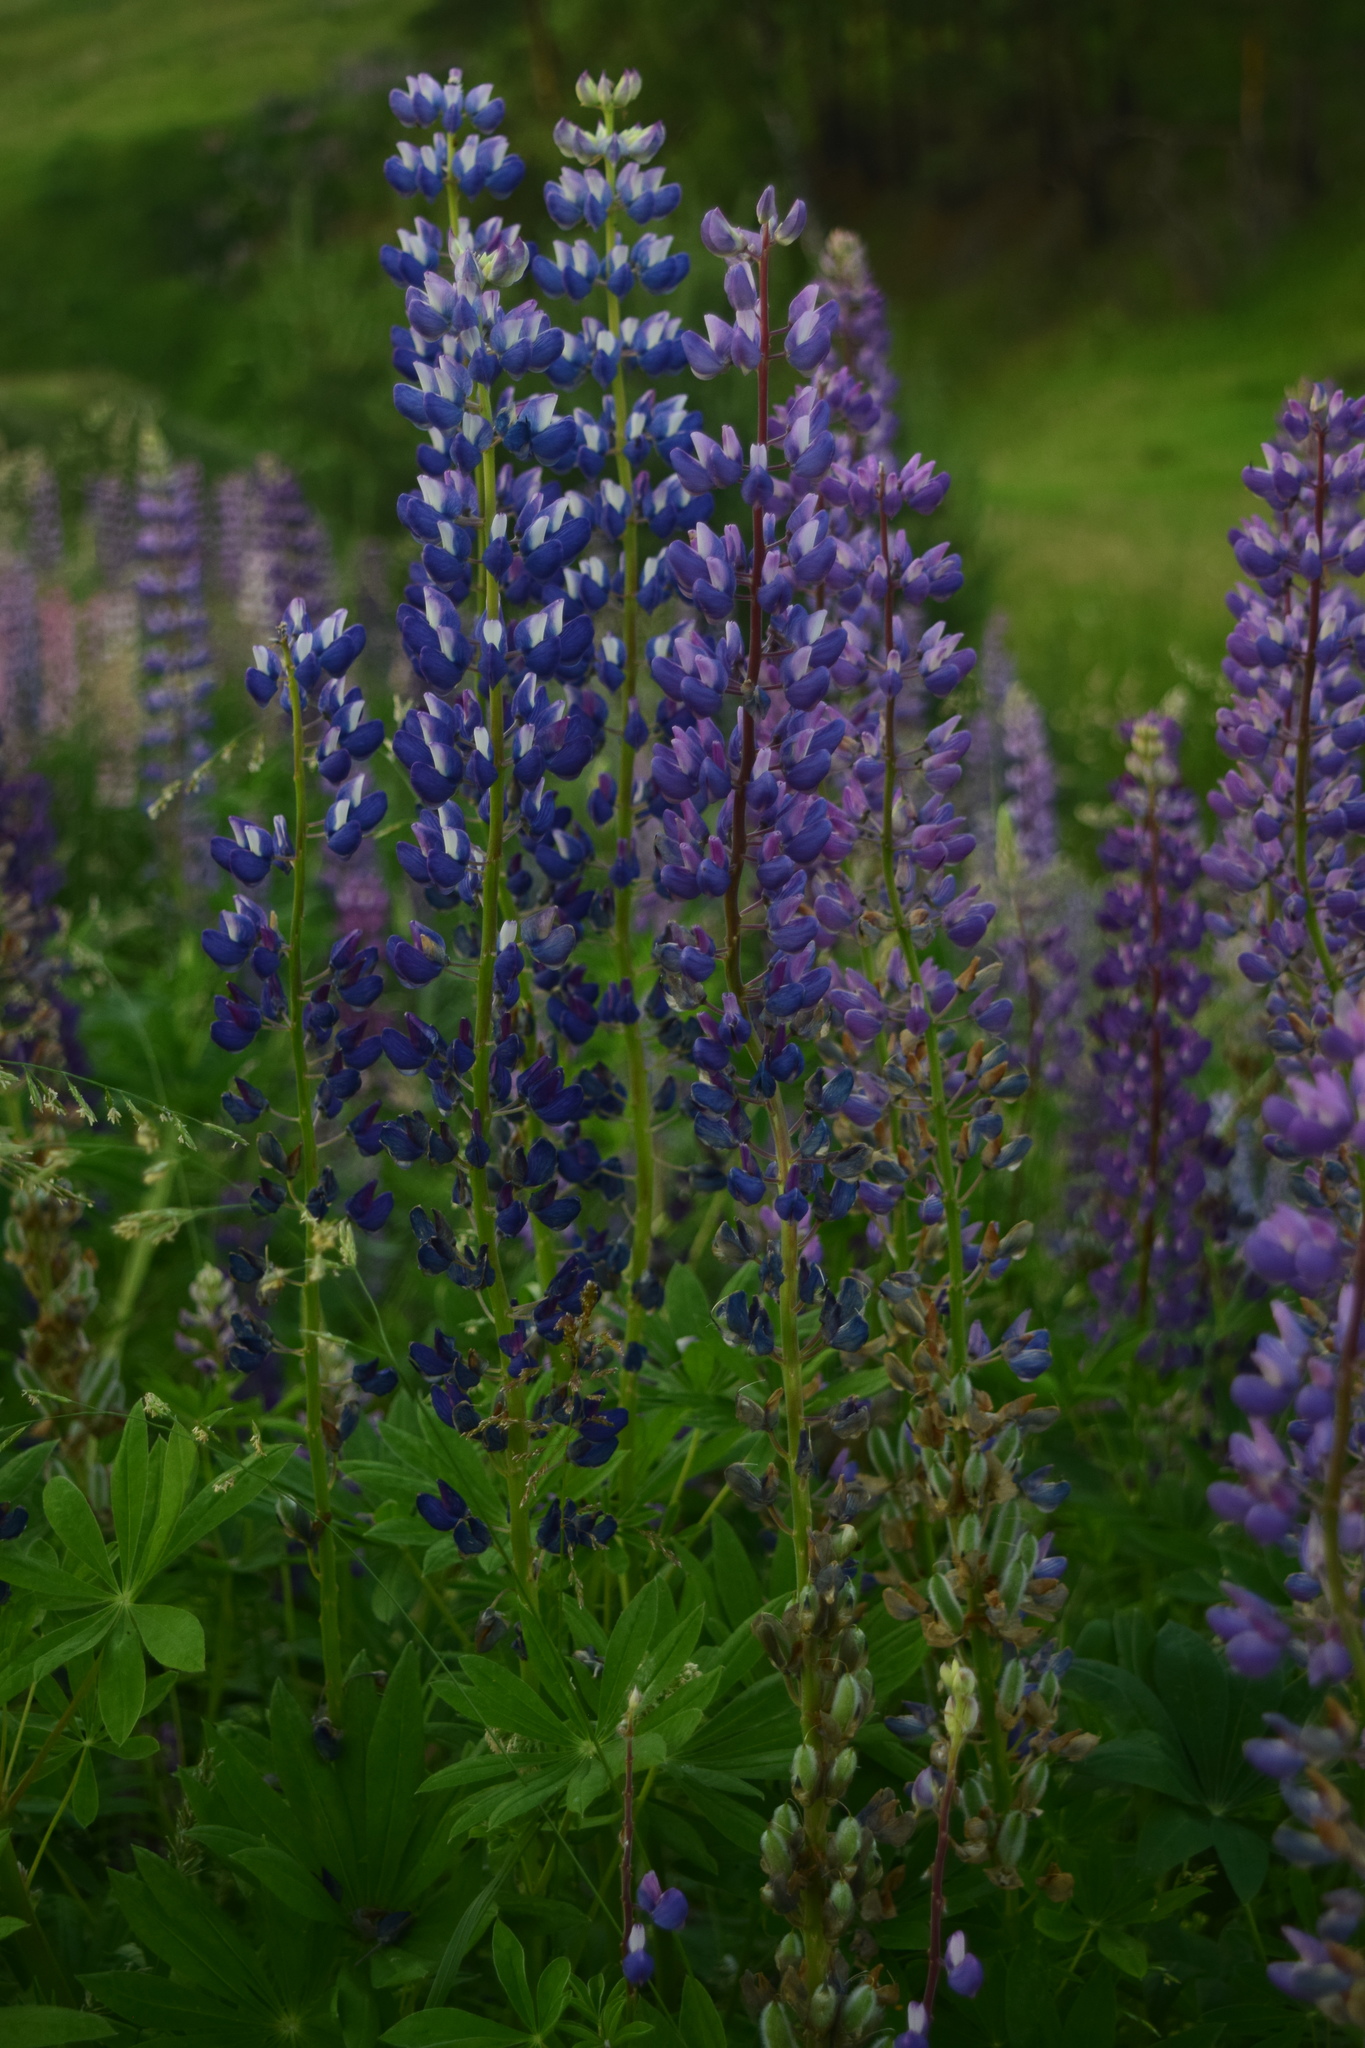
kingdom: Plantae
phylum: Tracheophyta
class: Magnoliopsida
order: Fabales
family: Fabaceae
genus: Lupinus
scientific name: Lupinus polyphyllus
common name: Garden lupin
